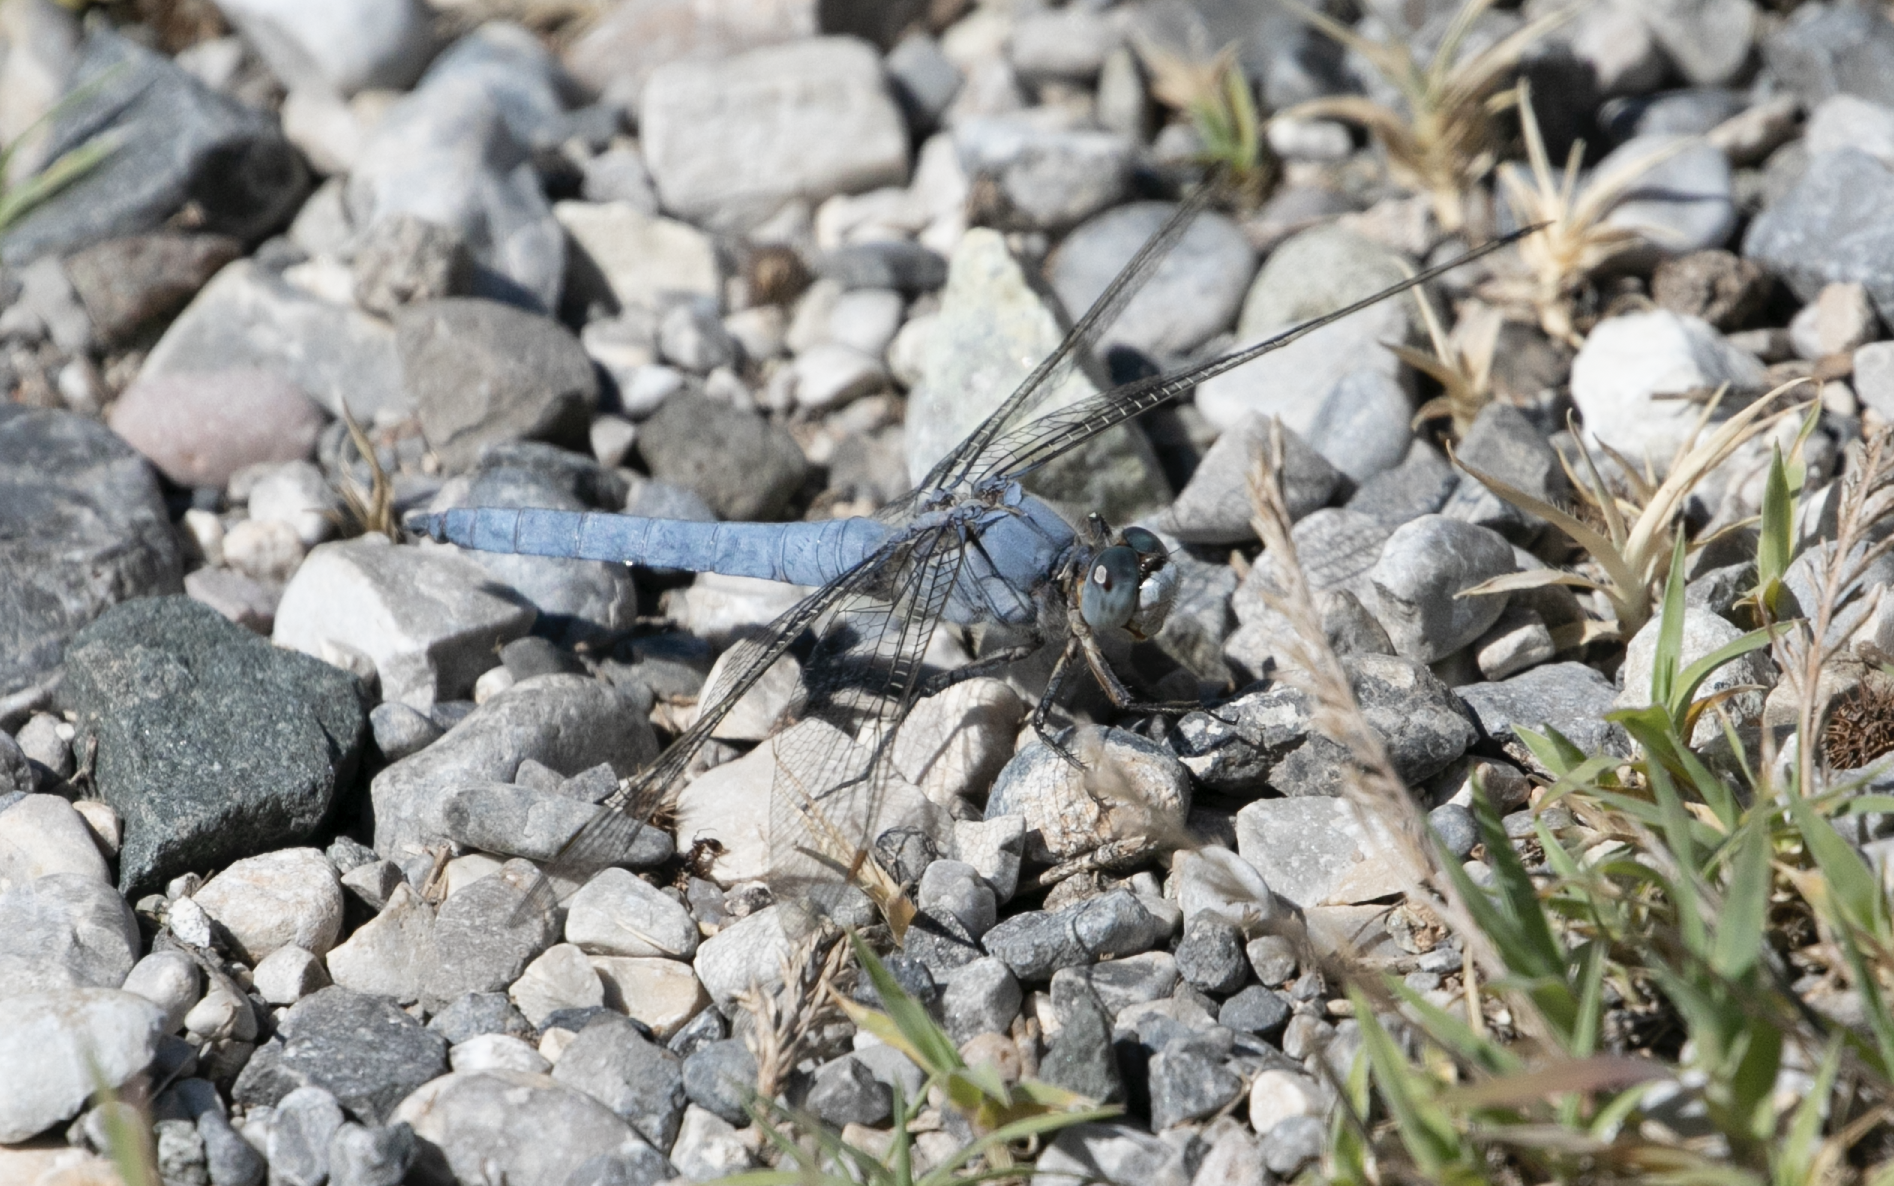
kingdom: Animalia
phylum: Arthropoda
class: Insecta
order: Odonata
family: Libellulidae
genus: Orthetrum
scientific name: Orthetrum brunneum
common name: Southern skimmer
